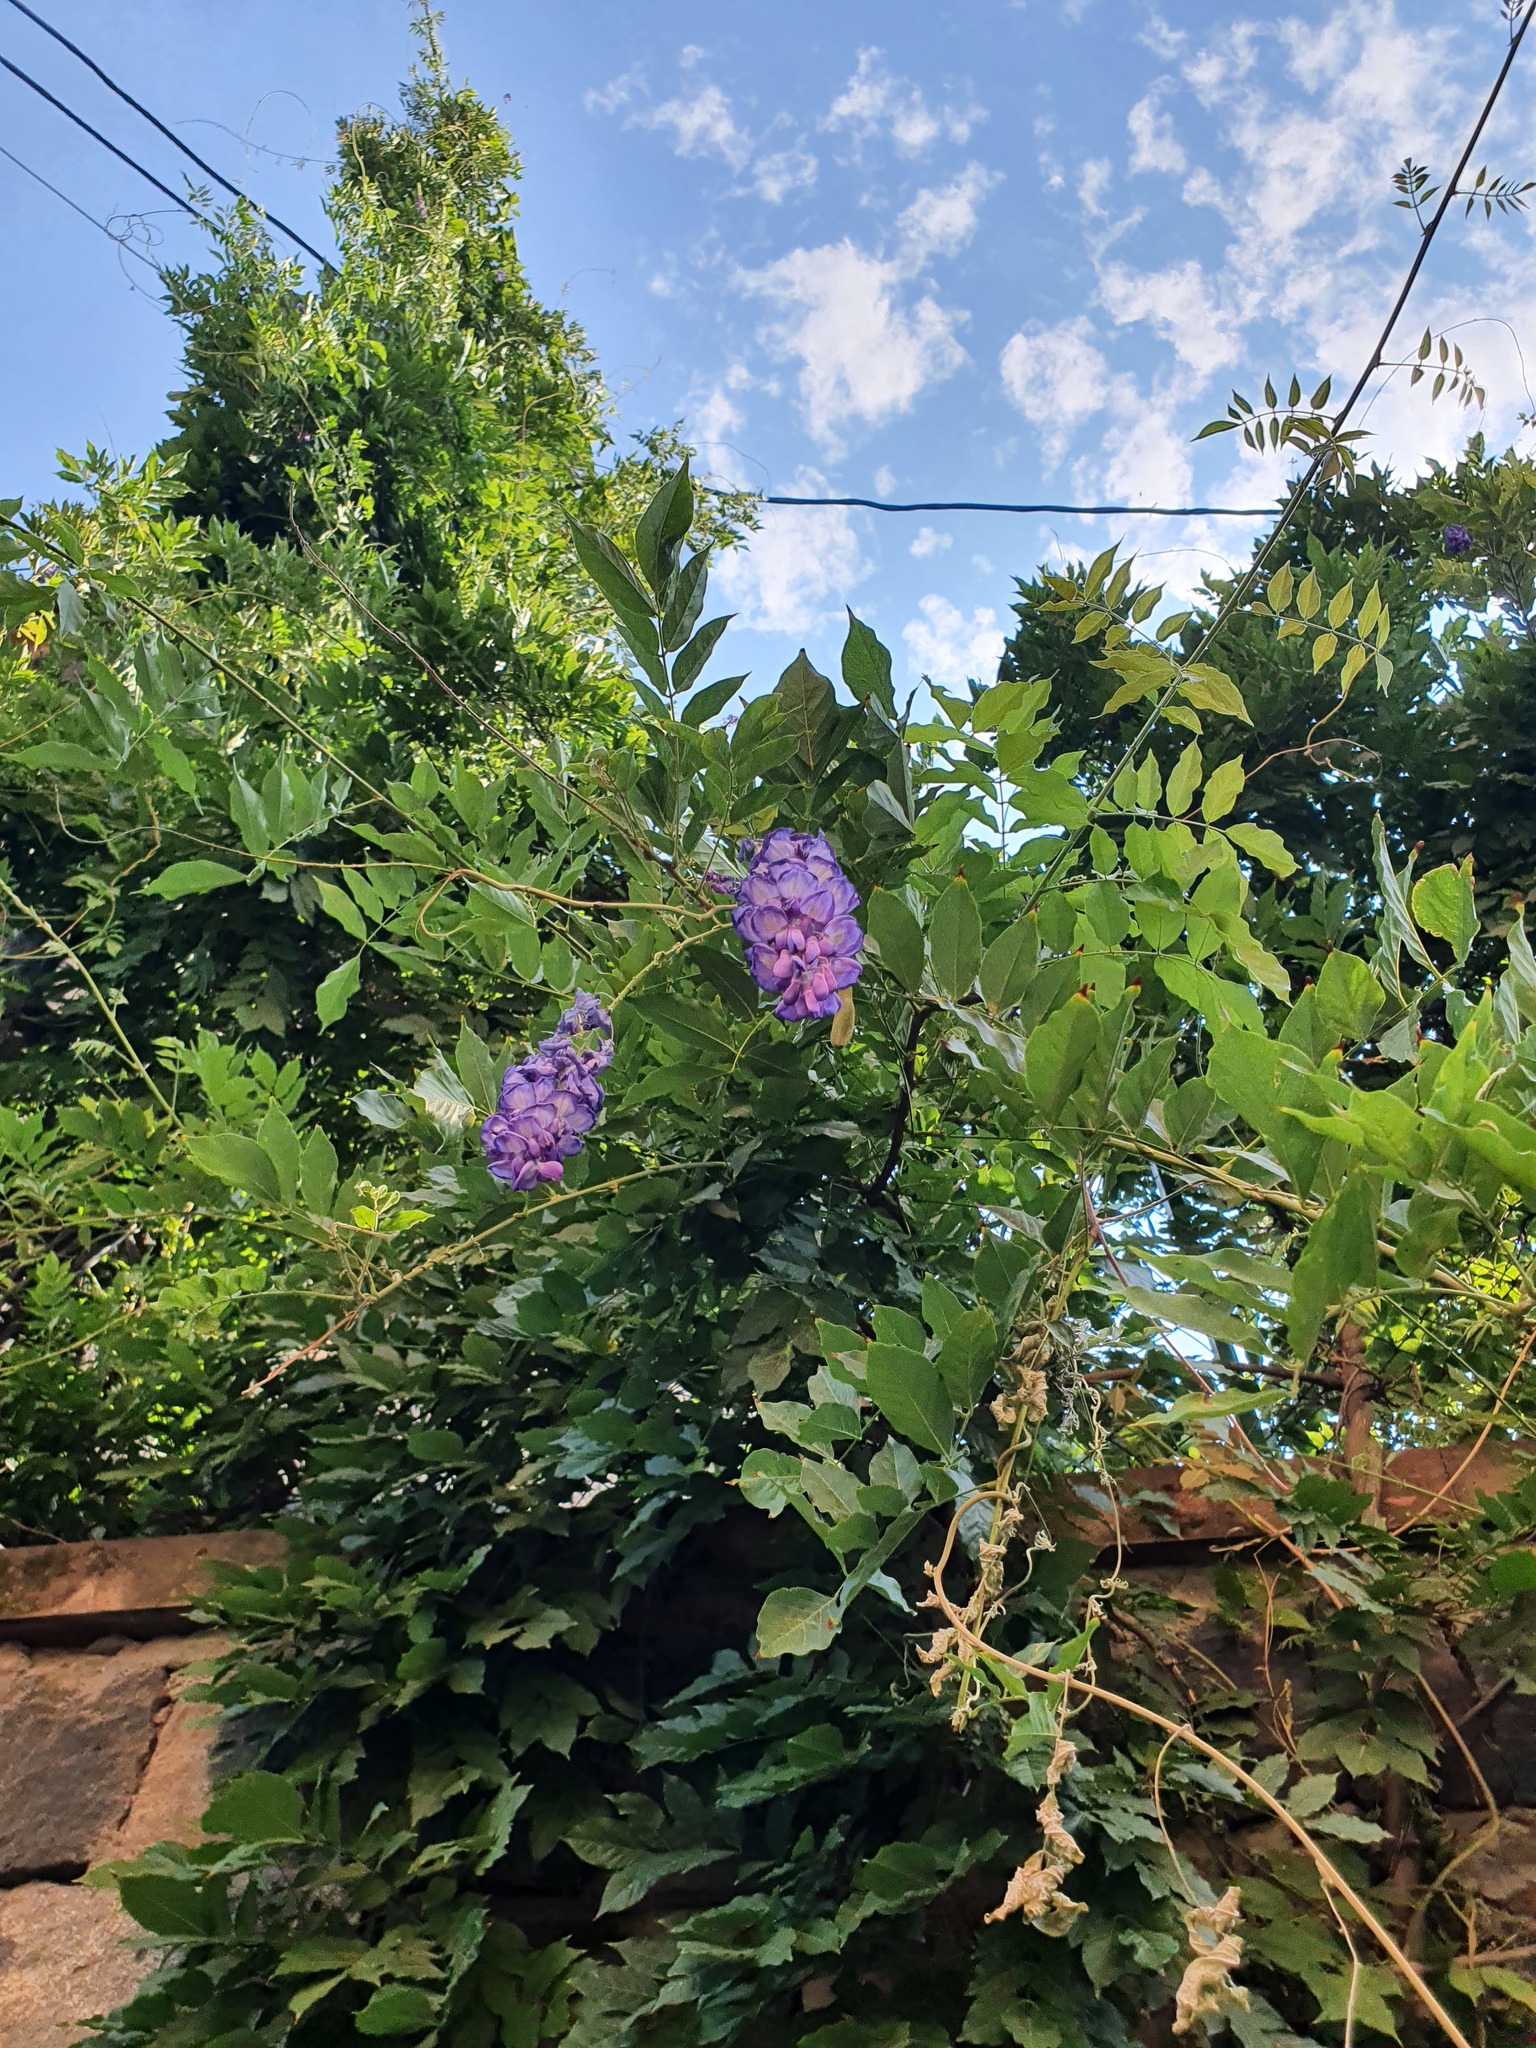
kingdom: Plantae
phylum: Tracheophyta
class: Magnoliopsida
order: Fabales
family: Fabaceae
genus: Wisteria
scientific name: Wisteria sinensis
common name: Chinese wisteria
